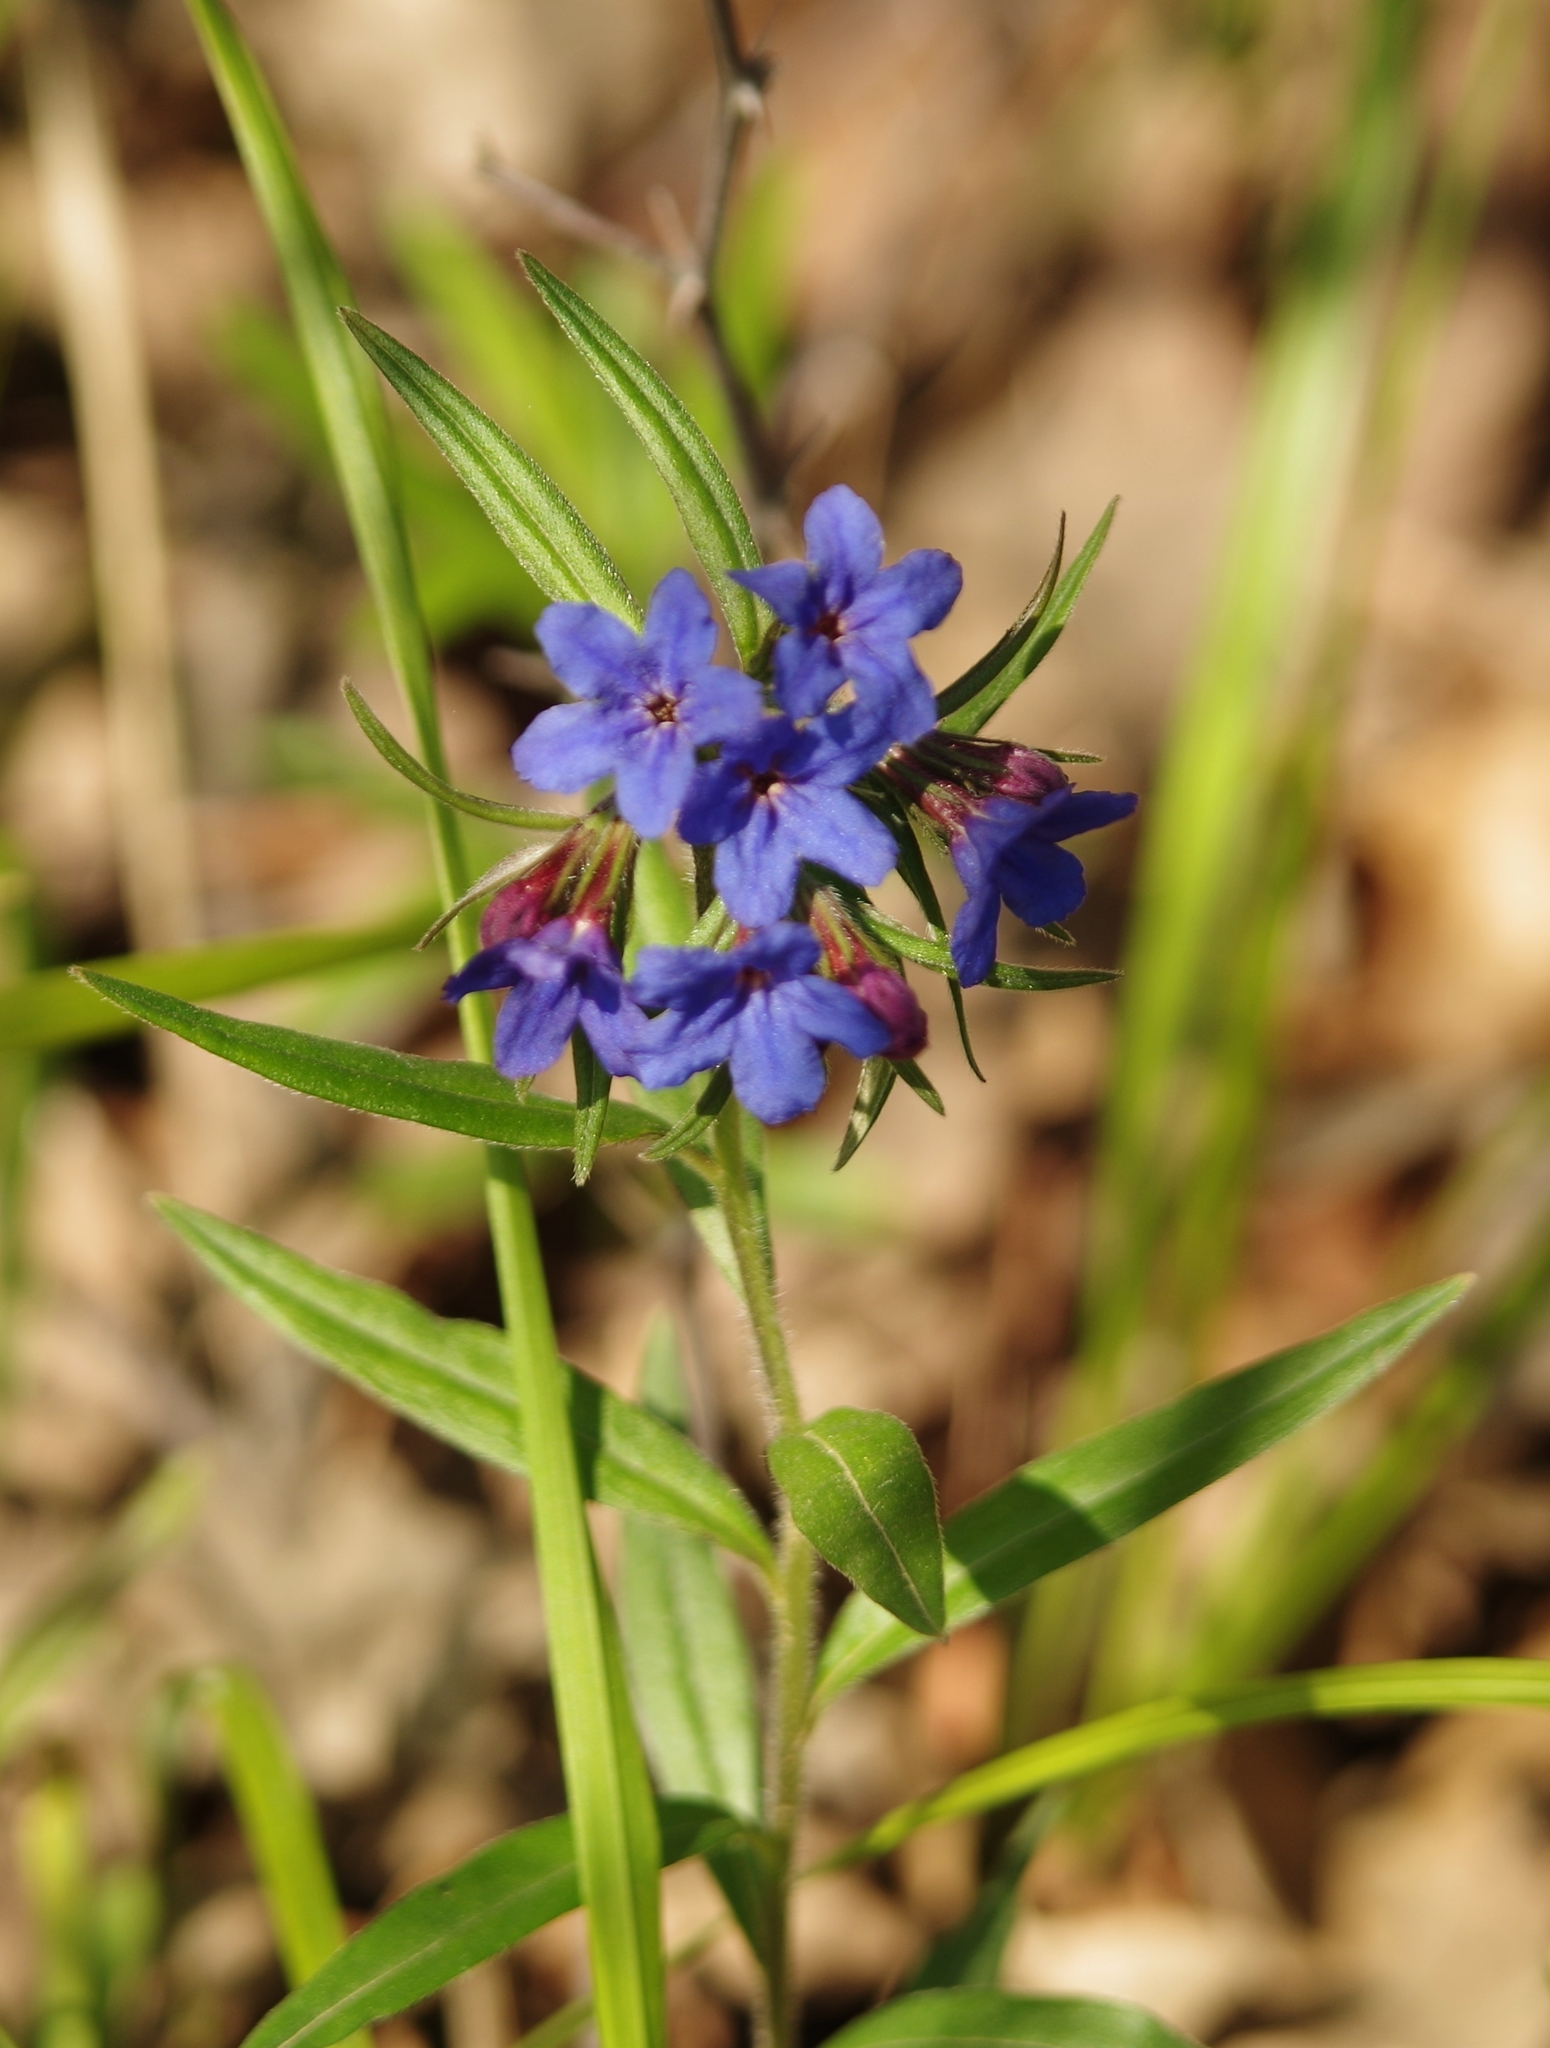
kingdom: Plantae
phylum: Tracheophyta
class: Magnoliopsida
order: Boraginales
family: Boraginaceae
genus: Aegonychon
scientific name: Aegonychon purpurocaeruleum
